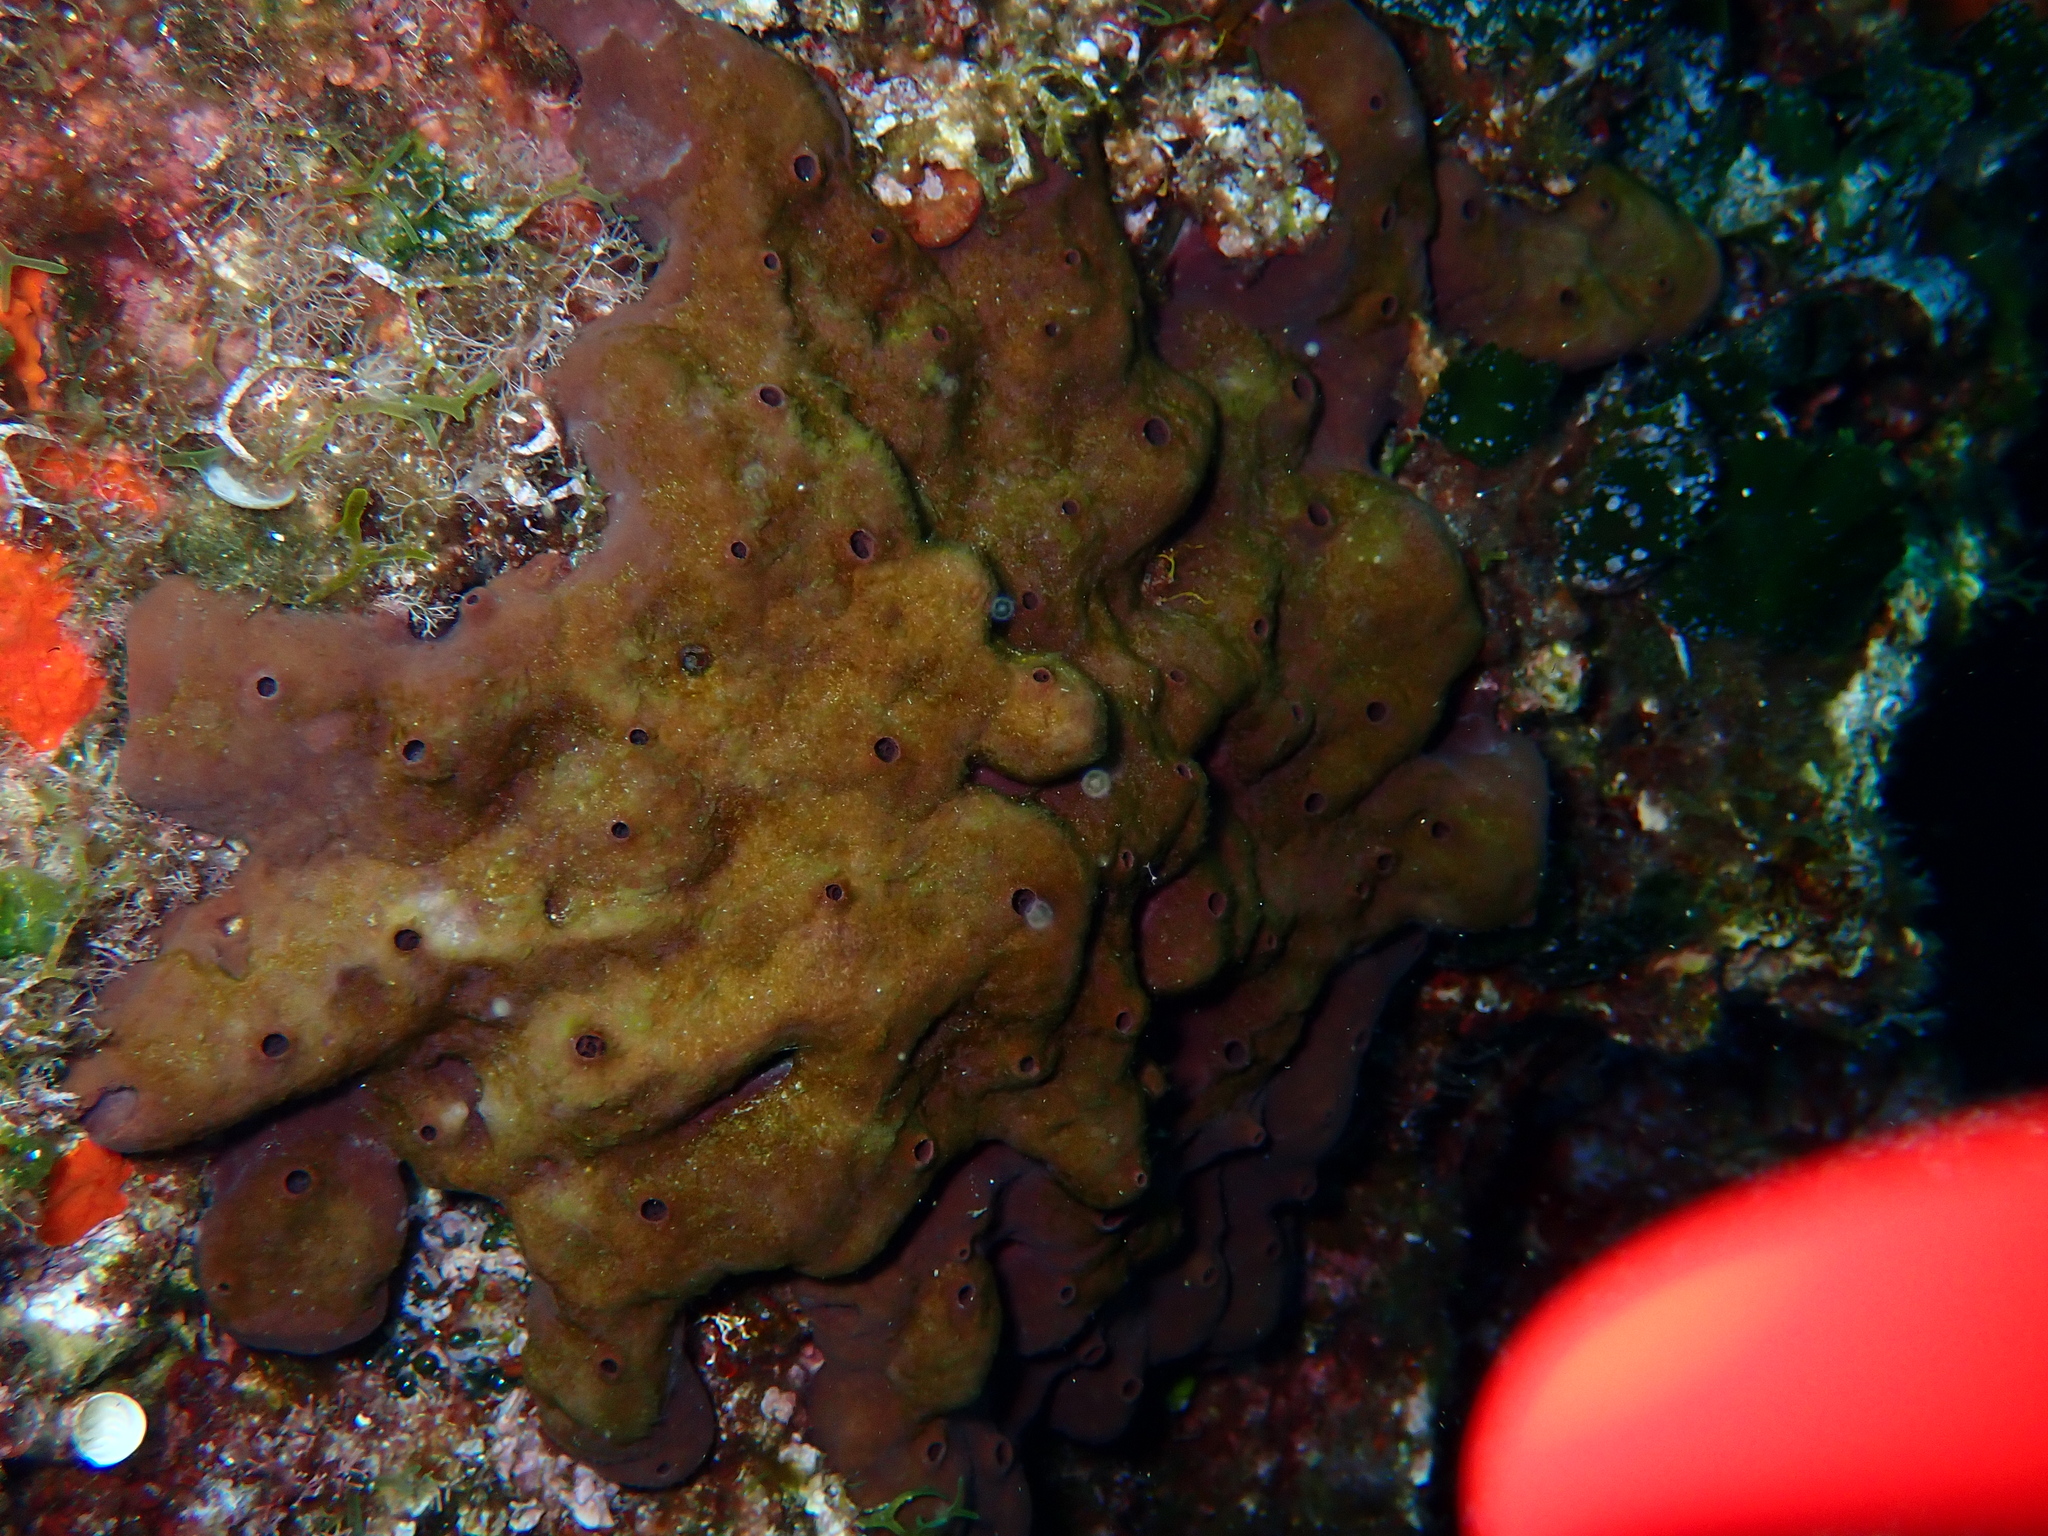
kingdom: Animalia
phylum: Porifera
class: Demospongiae
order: Haplosclerida
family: Petrosiidae
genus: Petrosia
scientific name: Petrosia ficiformis
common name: Stony sponge
